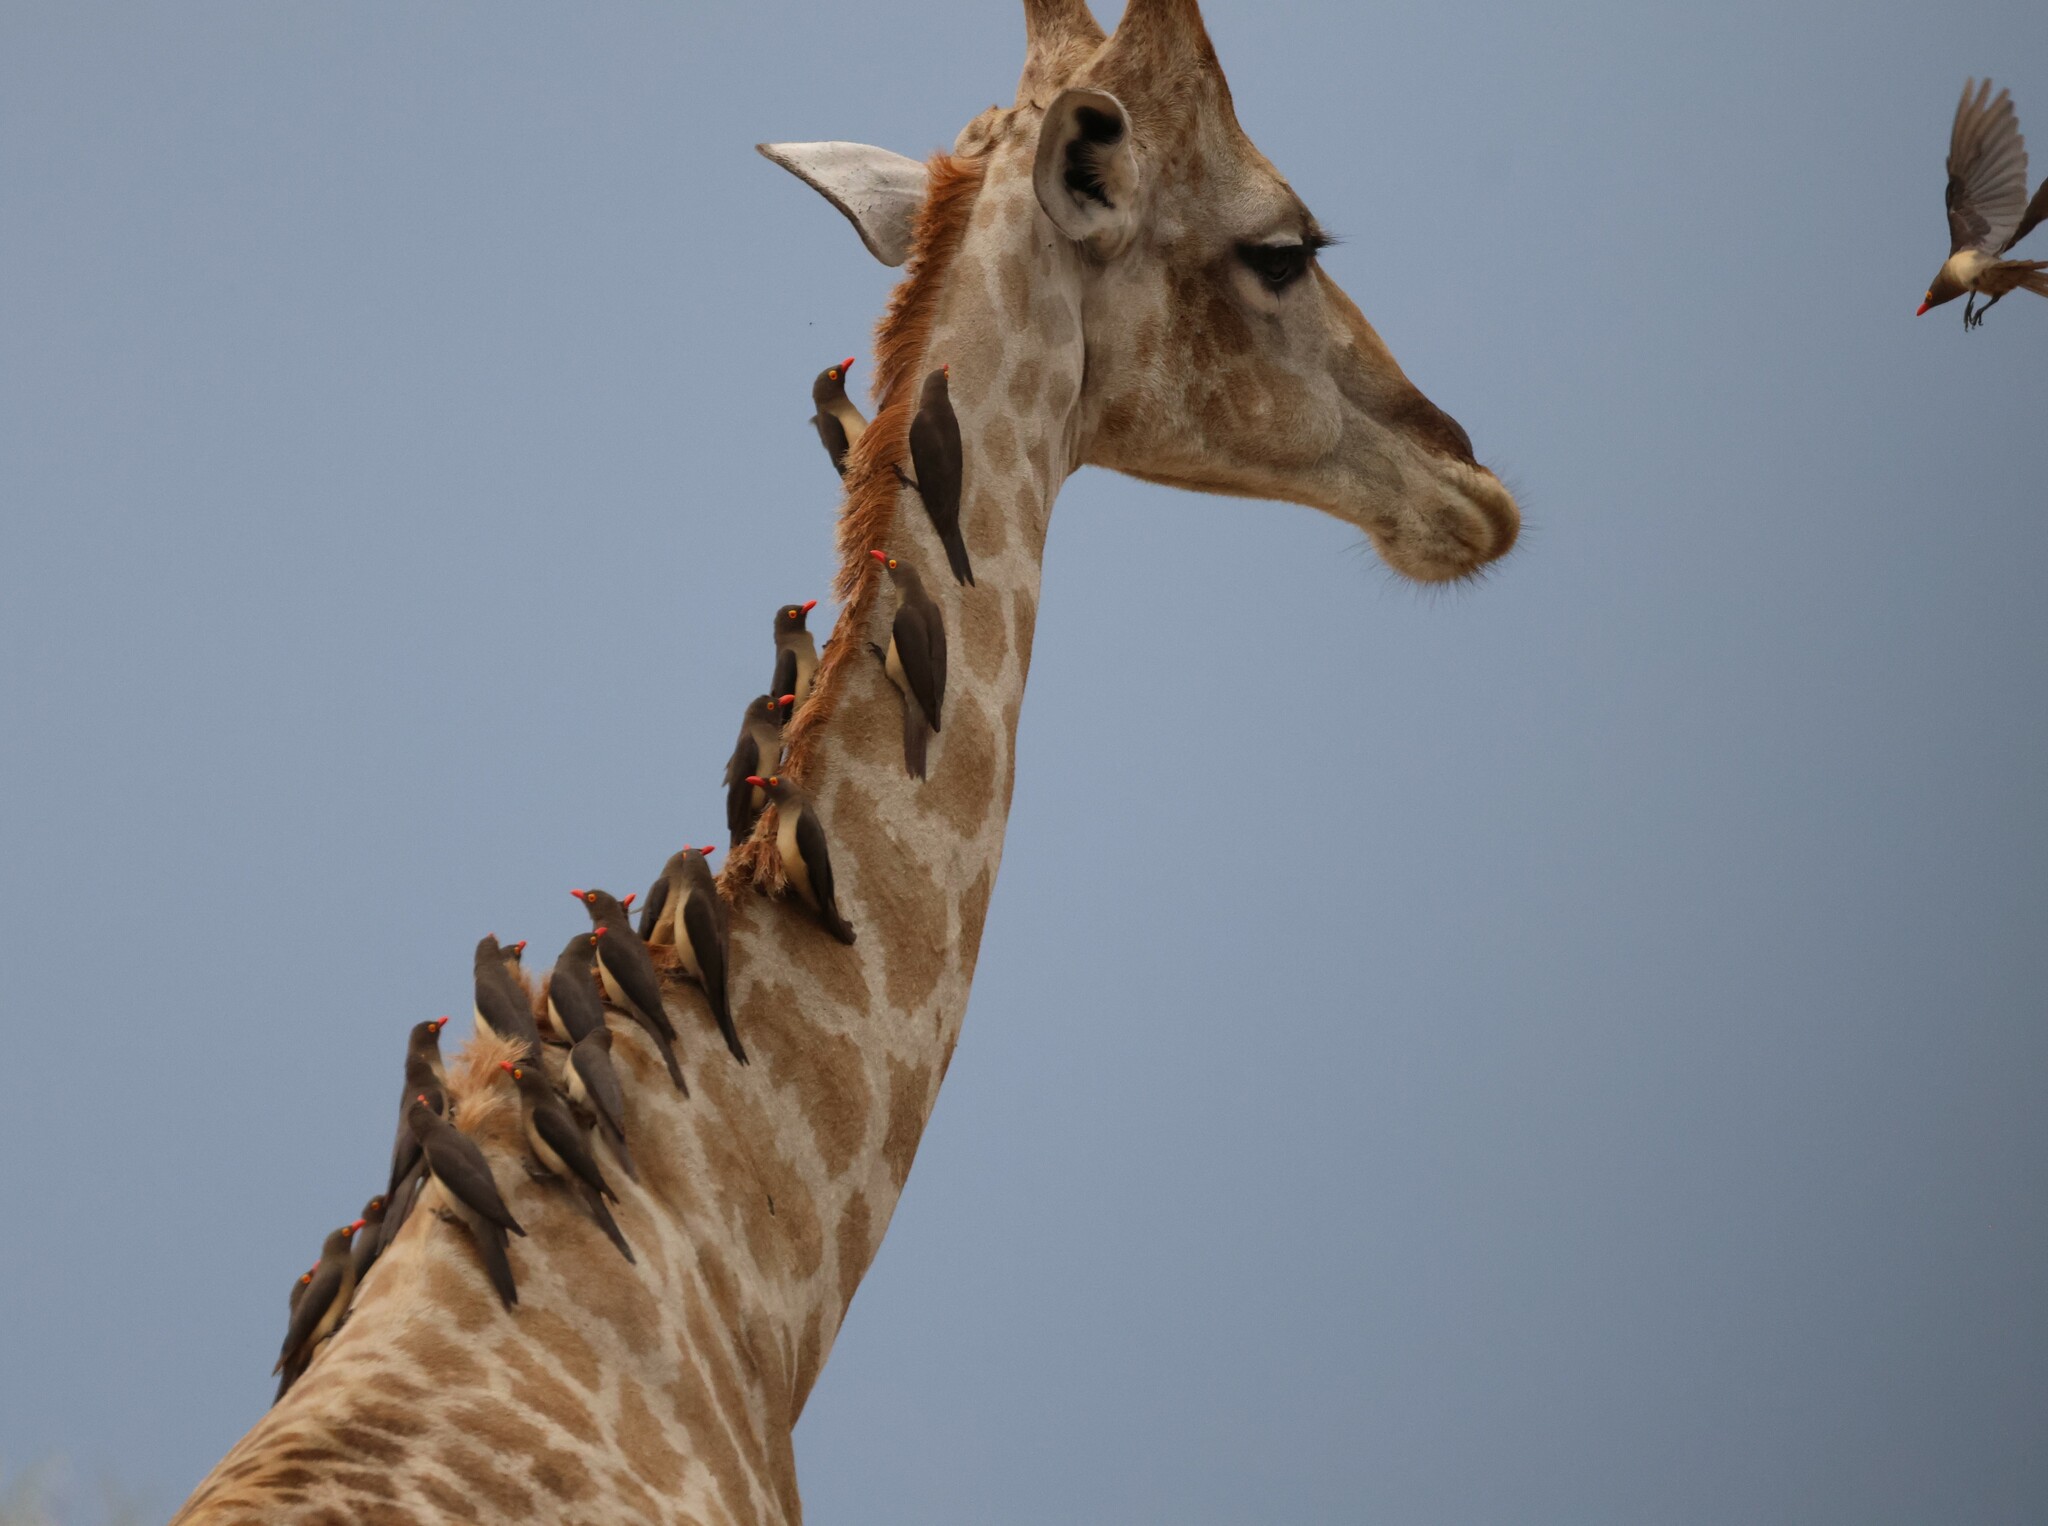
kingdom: Animalia
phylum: Chordata
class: Aves
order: Passeriformes
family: Buphagidae
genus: Buphagus
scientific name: Buphagus erythrorhynchus
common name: Red-billed oxpecker
